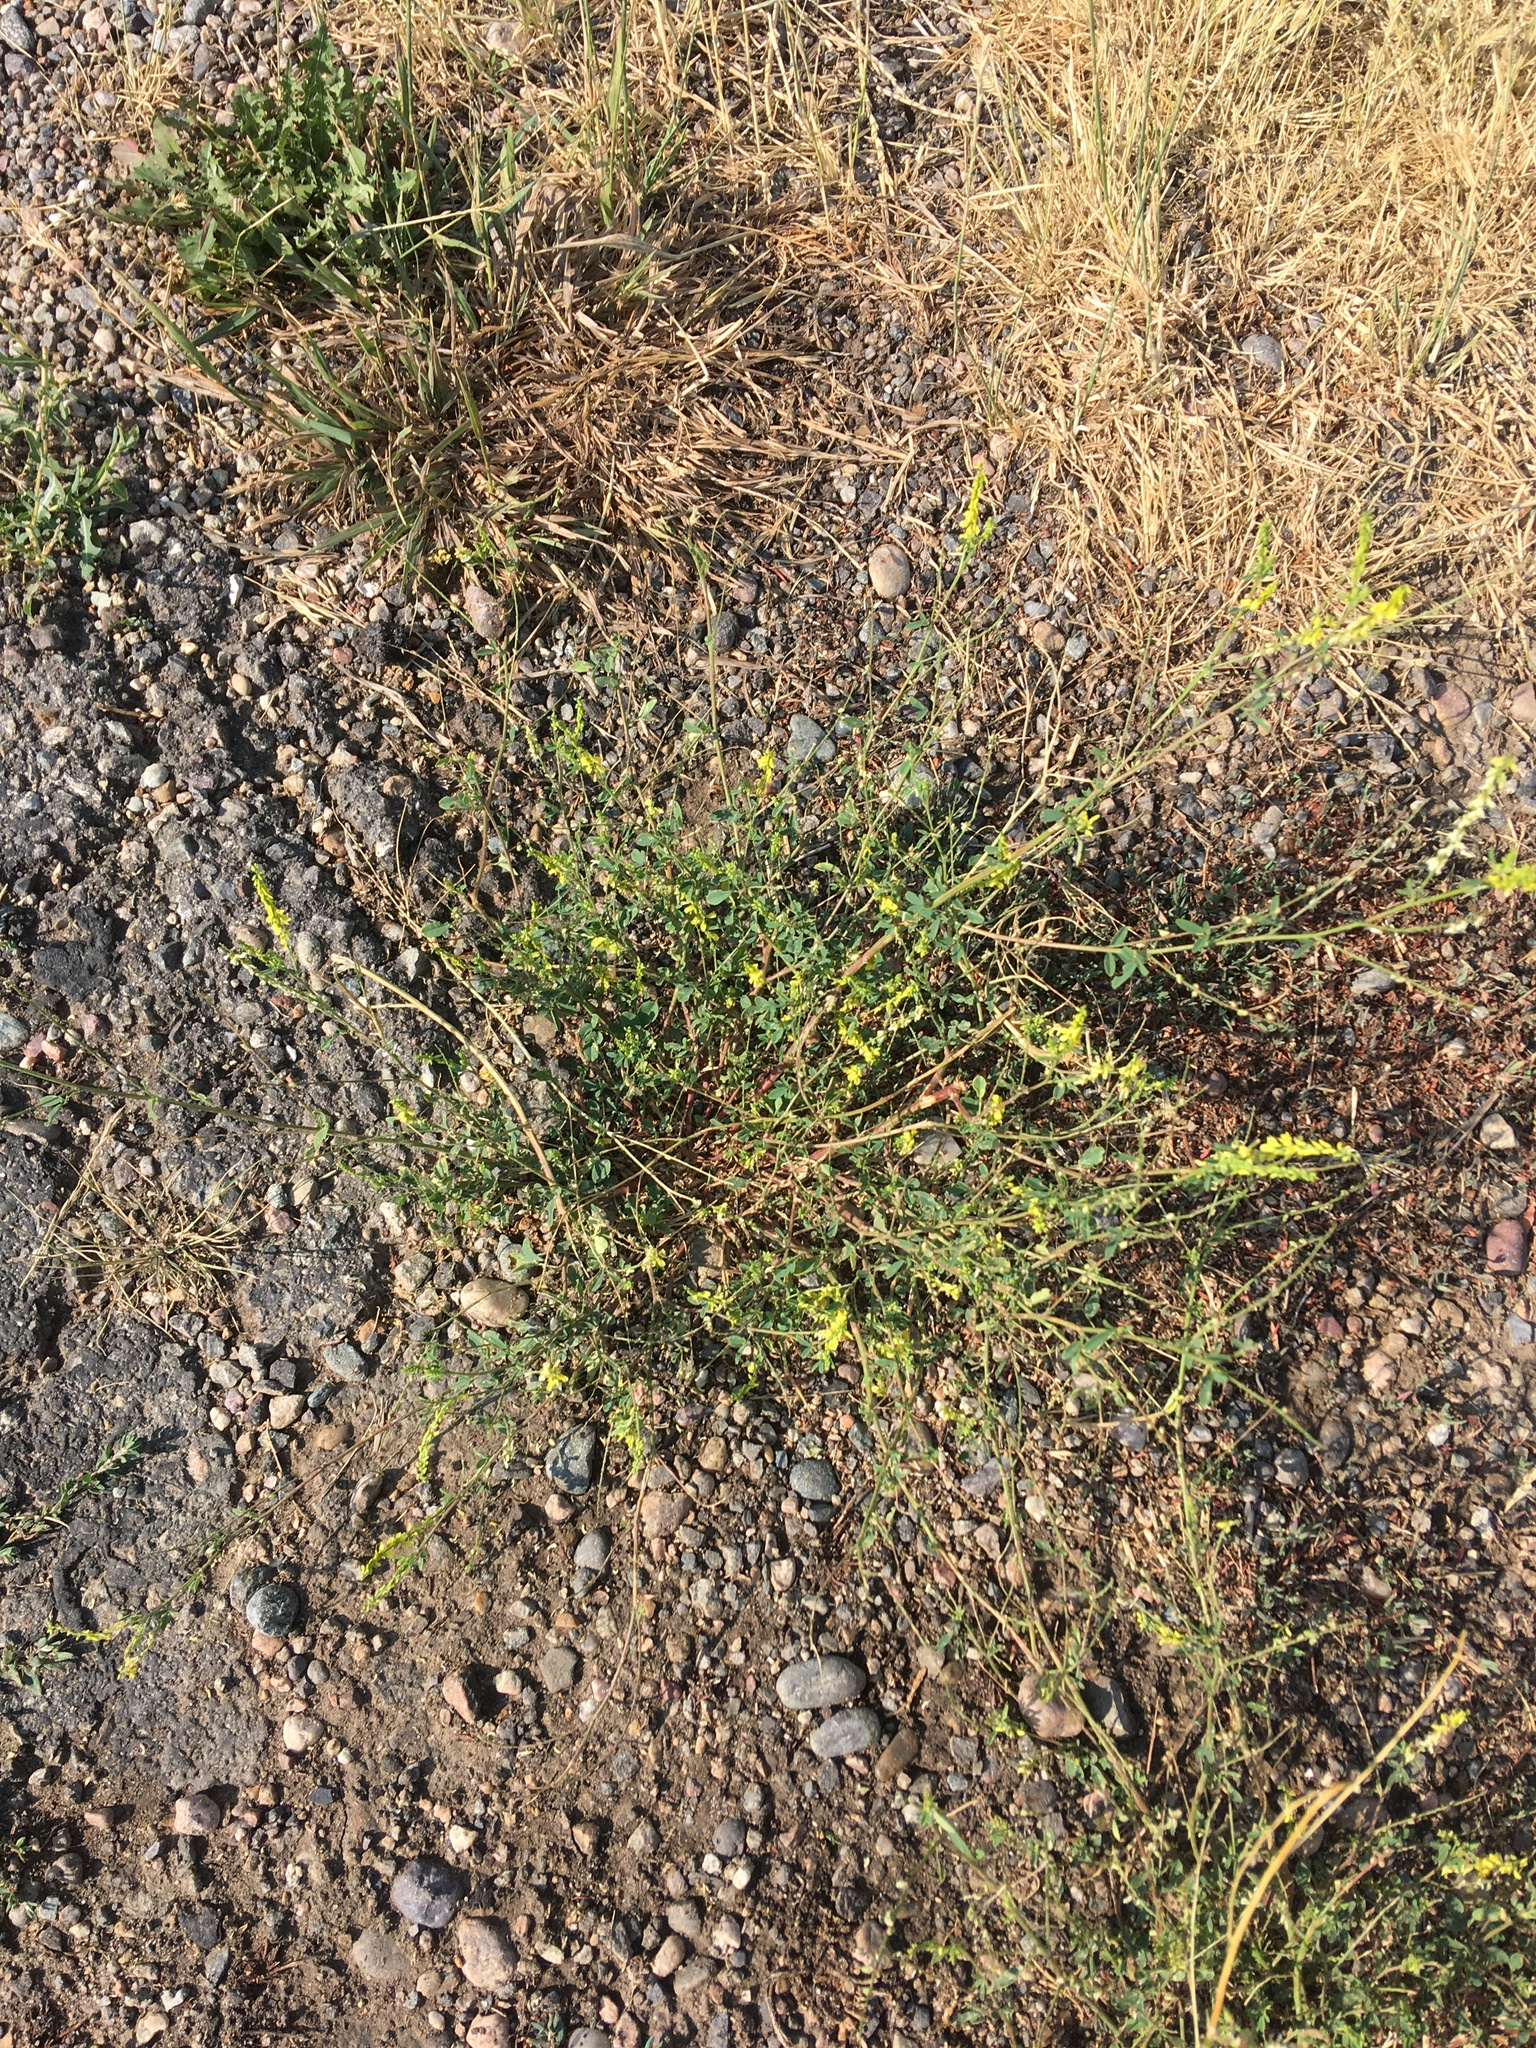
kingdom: Plantae
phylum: Tracheophyta
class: Magnoliopsida
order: Fabales
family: Fabaceae
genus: Melilotus
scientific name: Melilotus officinalis
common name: Sweetclover
